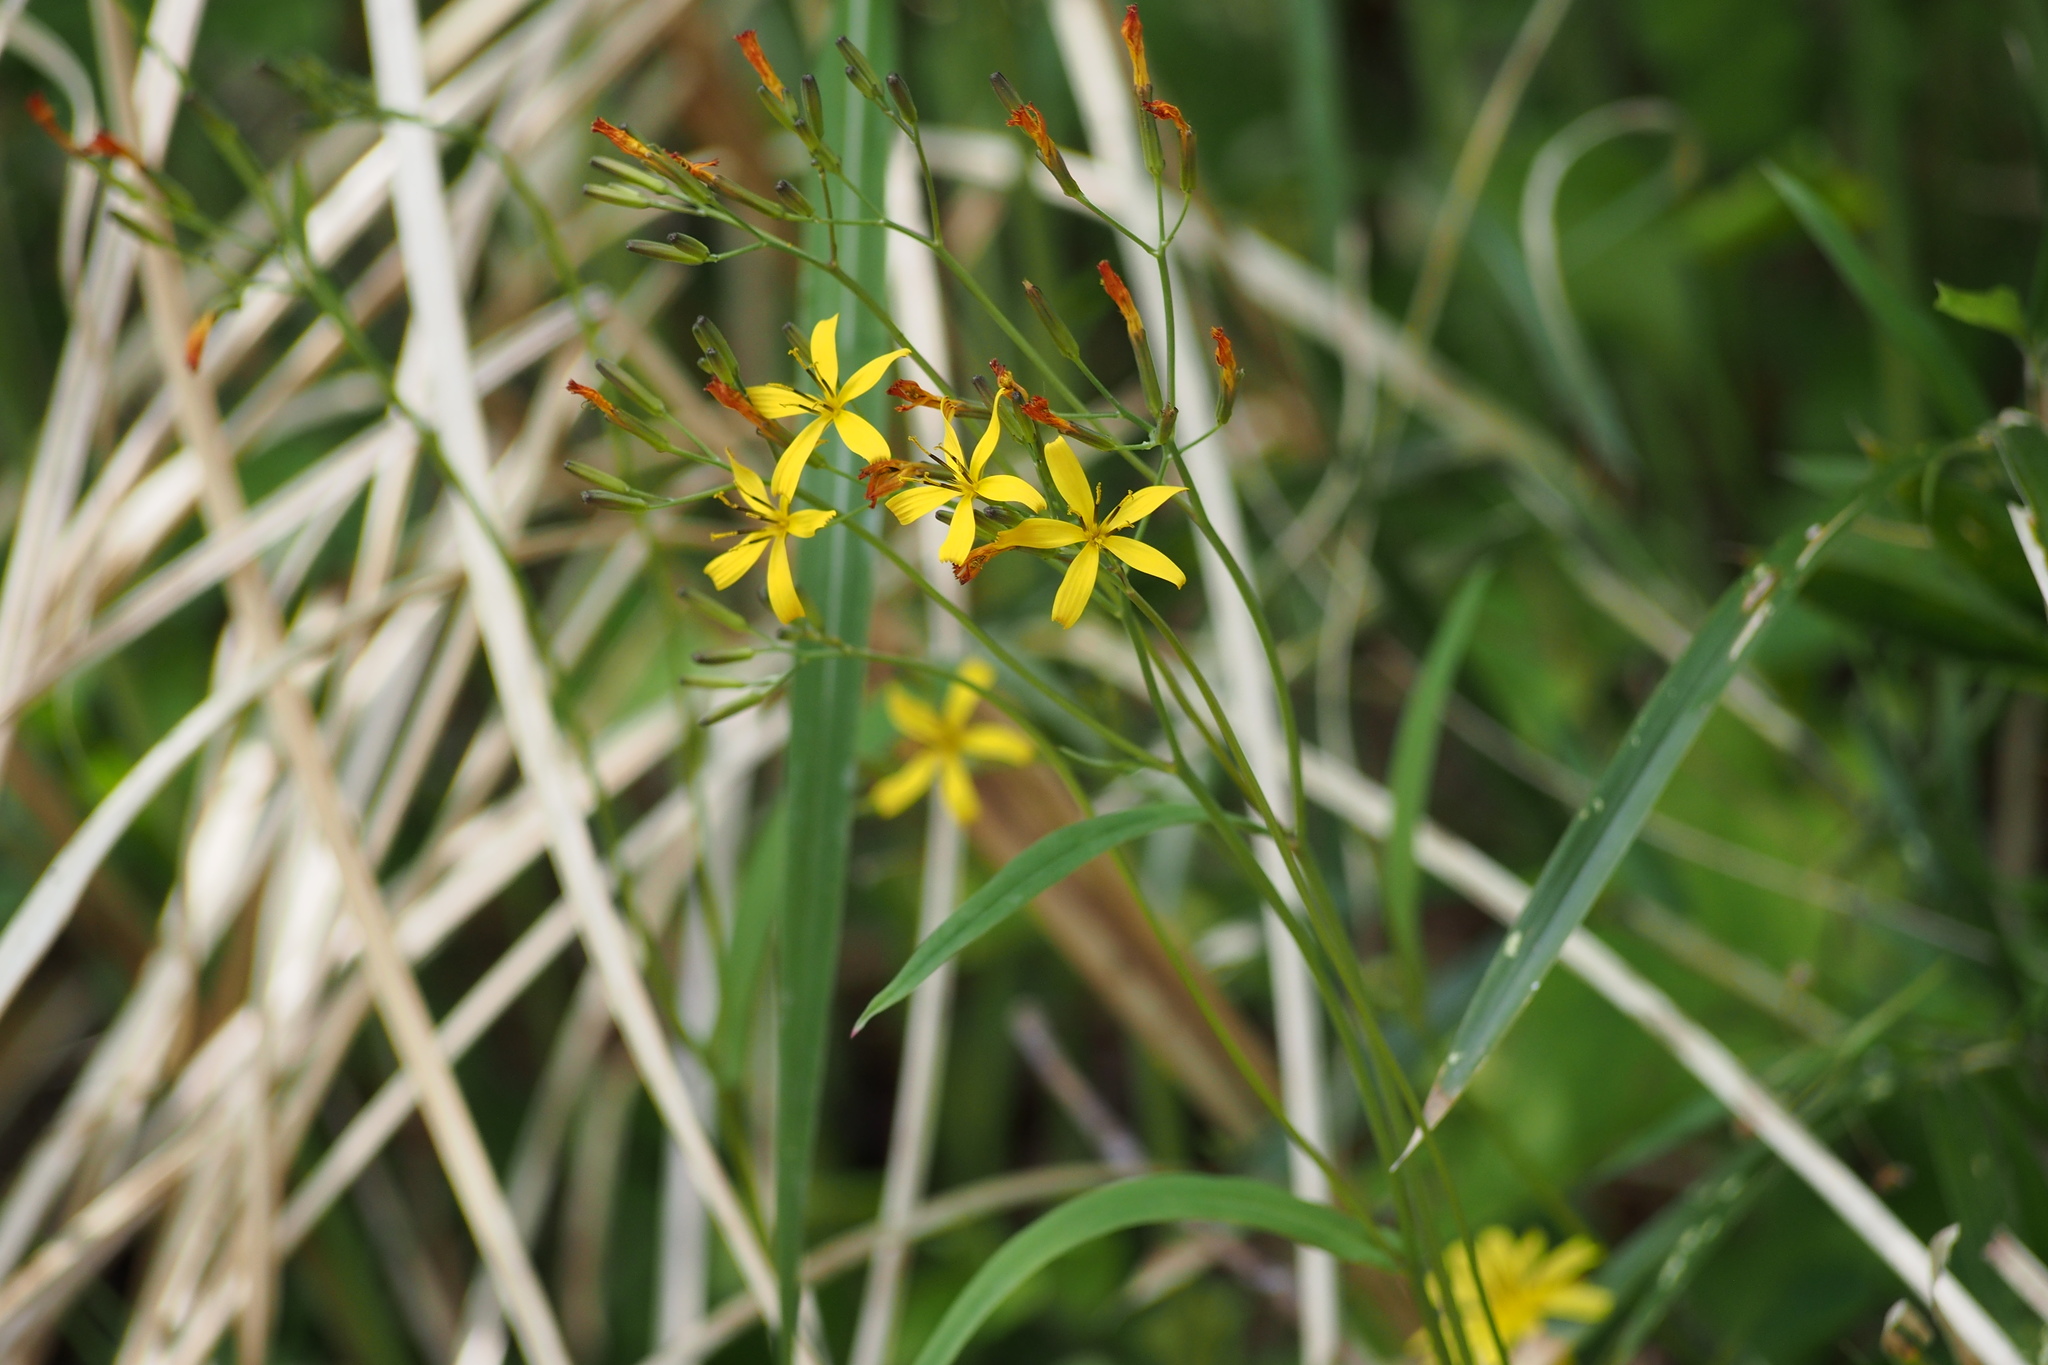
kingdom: Plantae
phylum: Tracheophyta
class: Magnoliopsida
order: Asterales
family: Asteraceae
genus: Ixeridium
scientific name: Ixeridium dentatum
